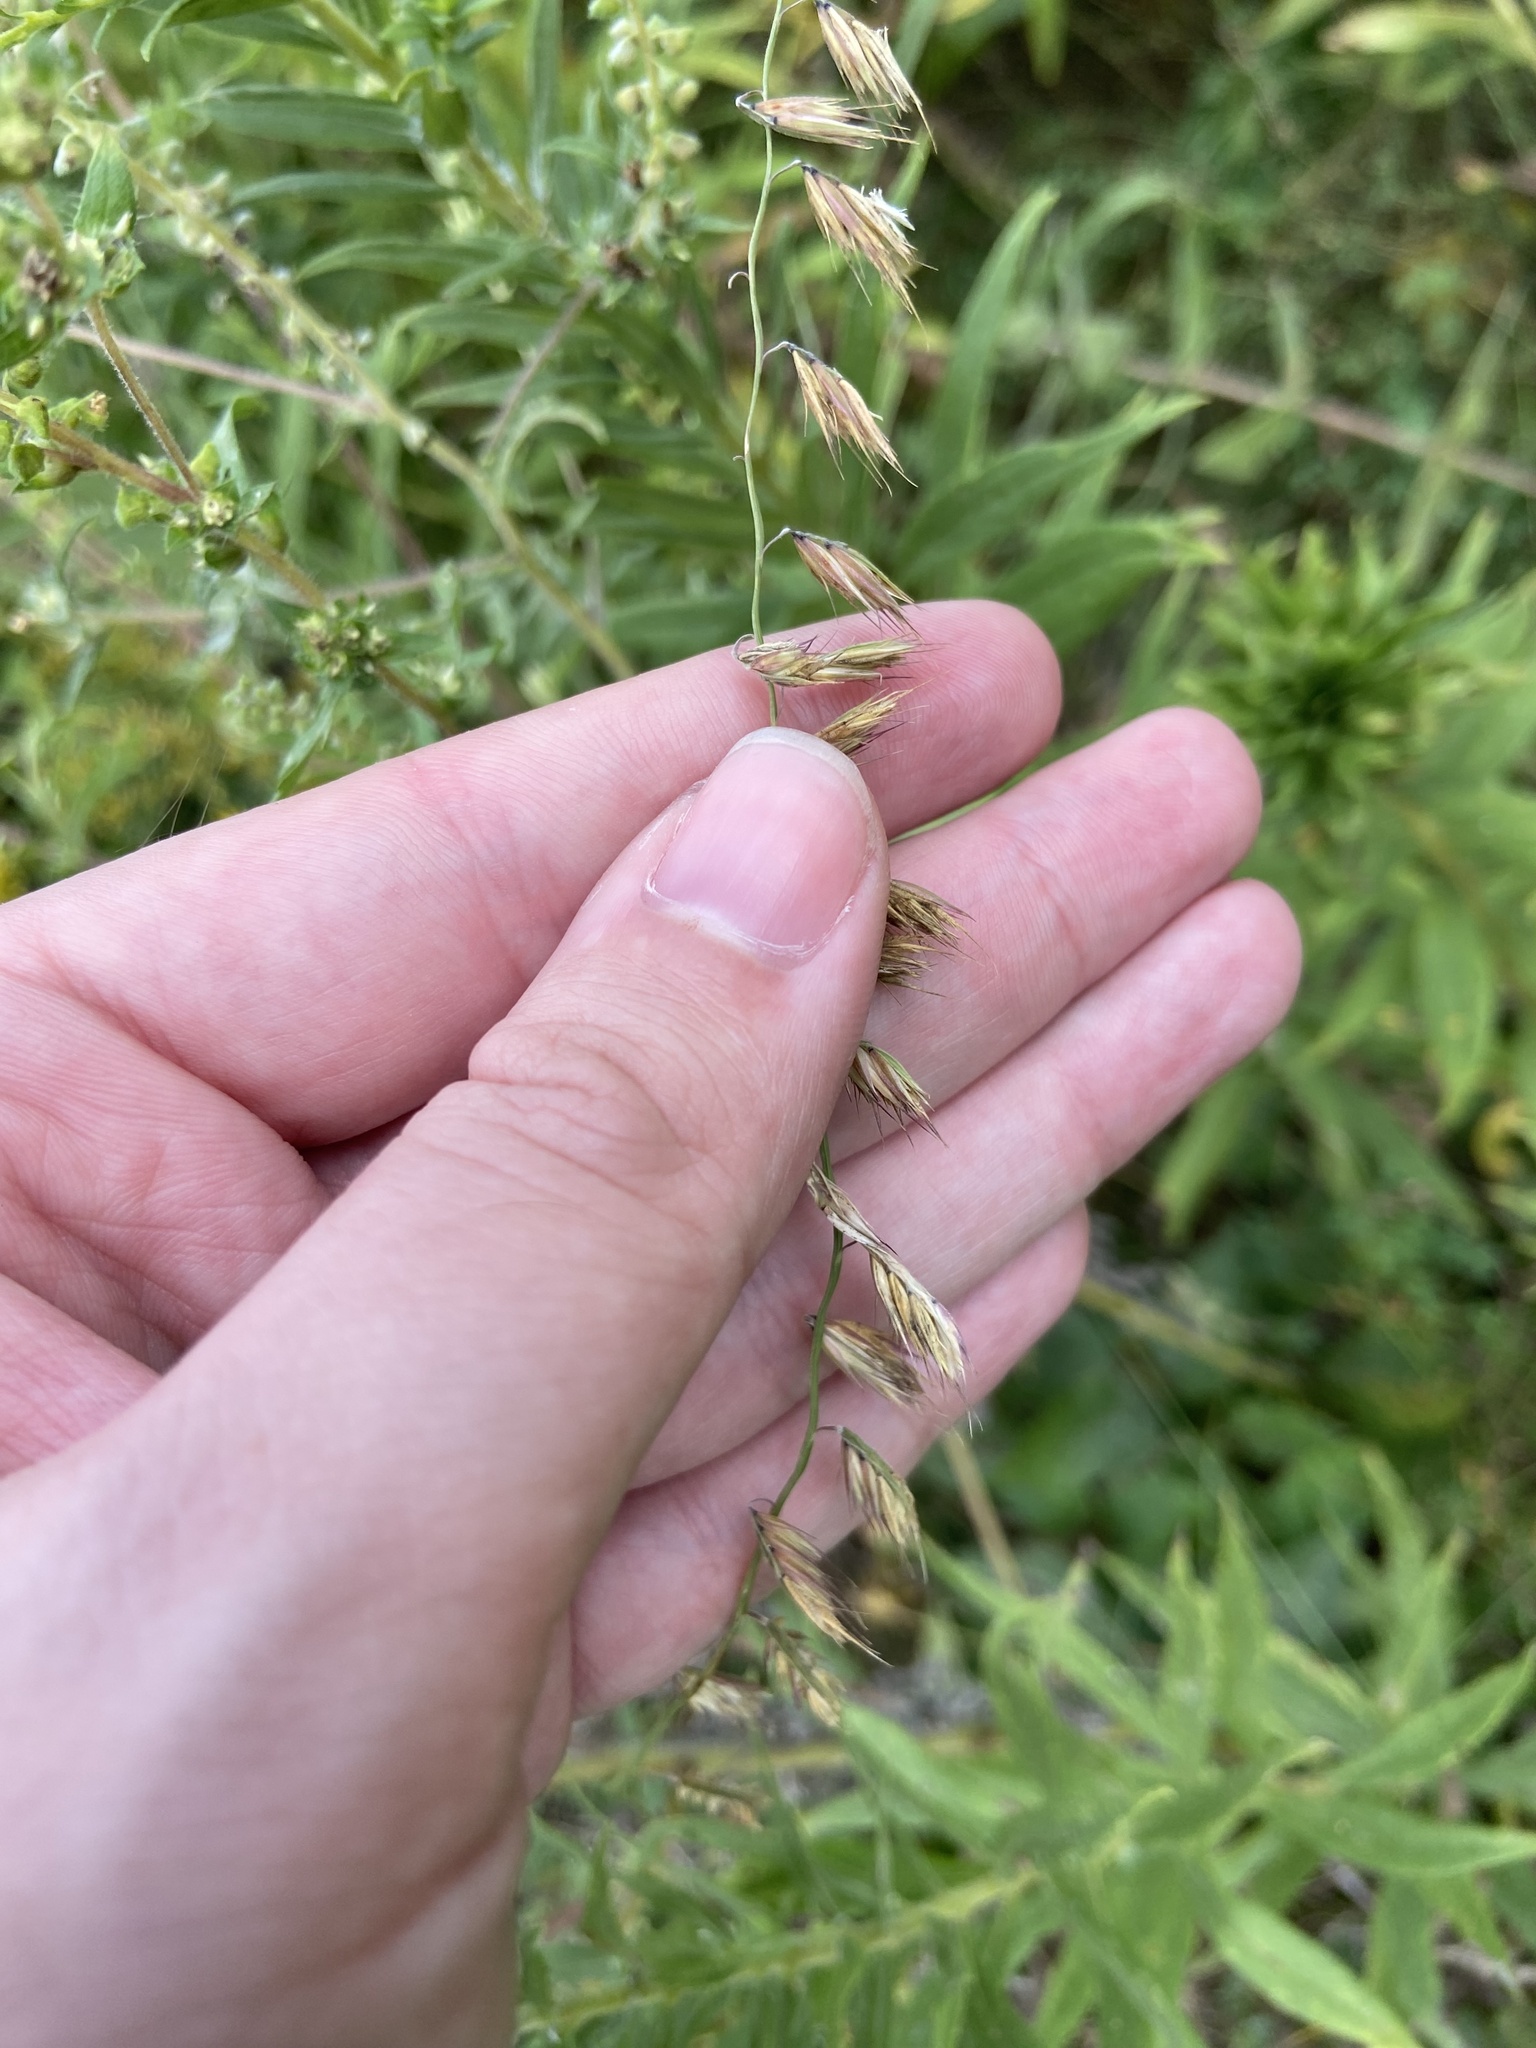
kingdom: Plantae
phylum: Tracheophyta
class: Liliopsida
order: Poales
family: Poaceae
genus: Bouteloua
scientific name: Bouteloua curtipendula
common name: Side-oats grama
